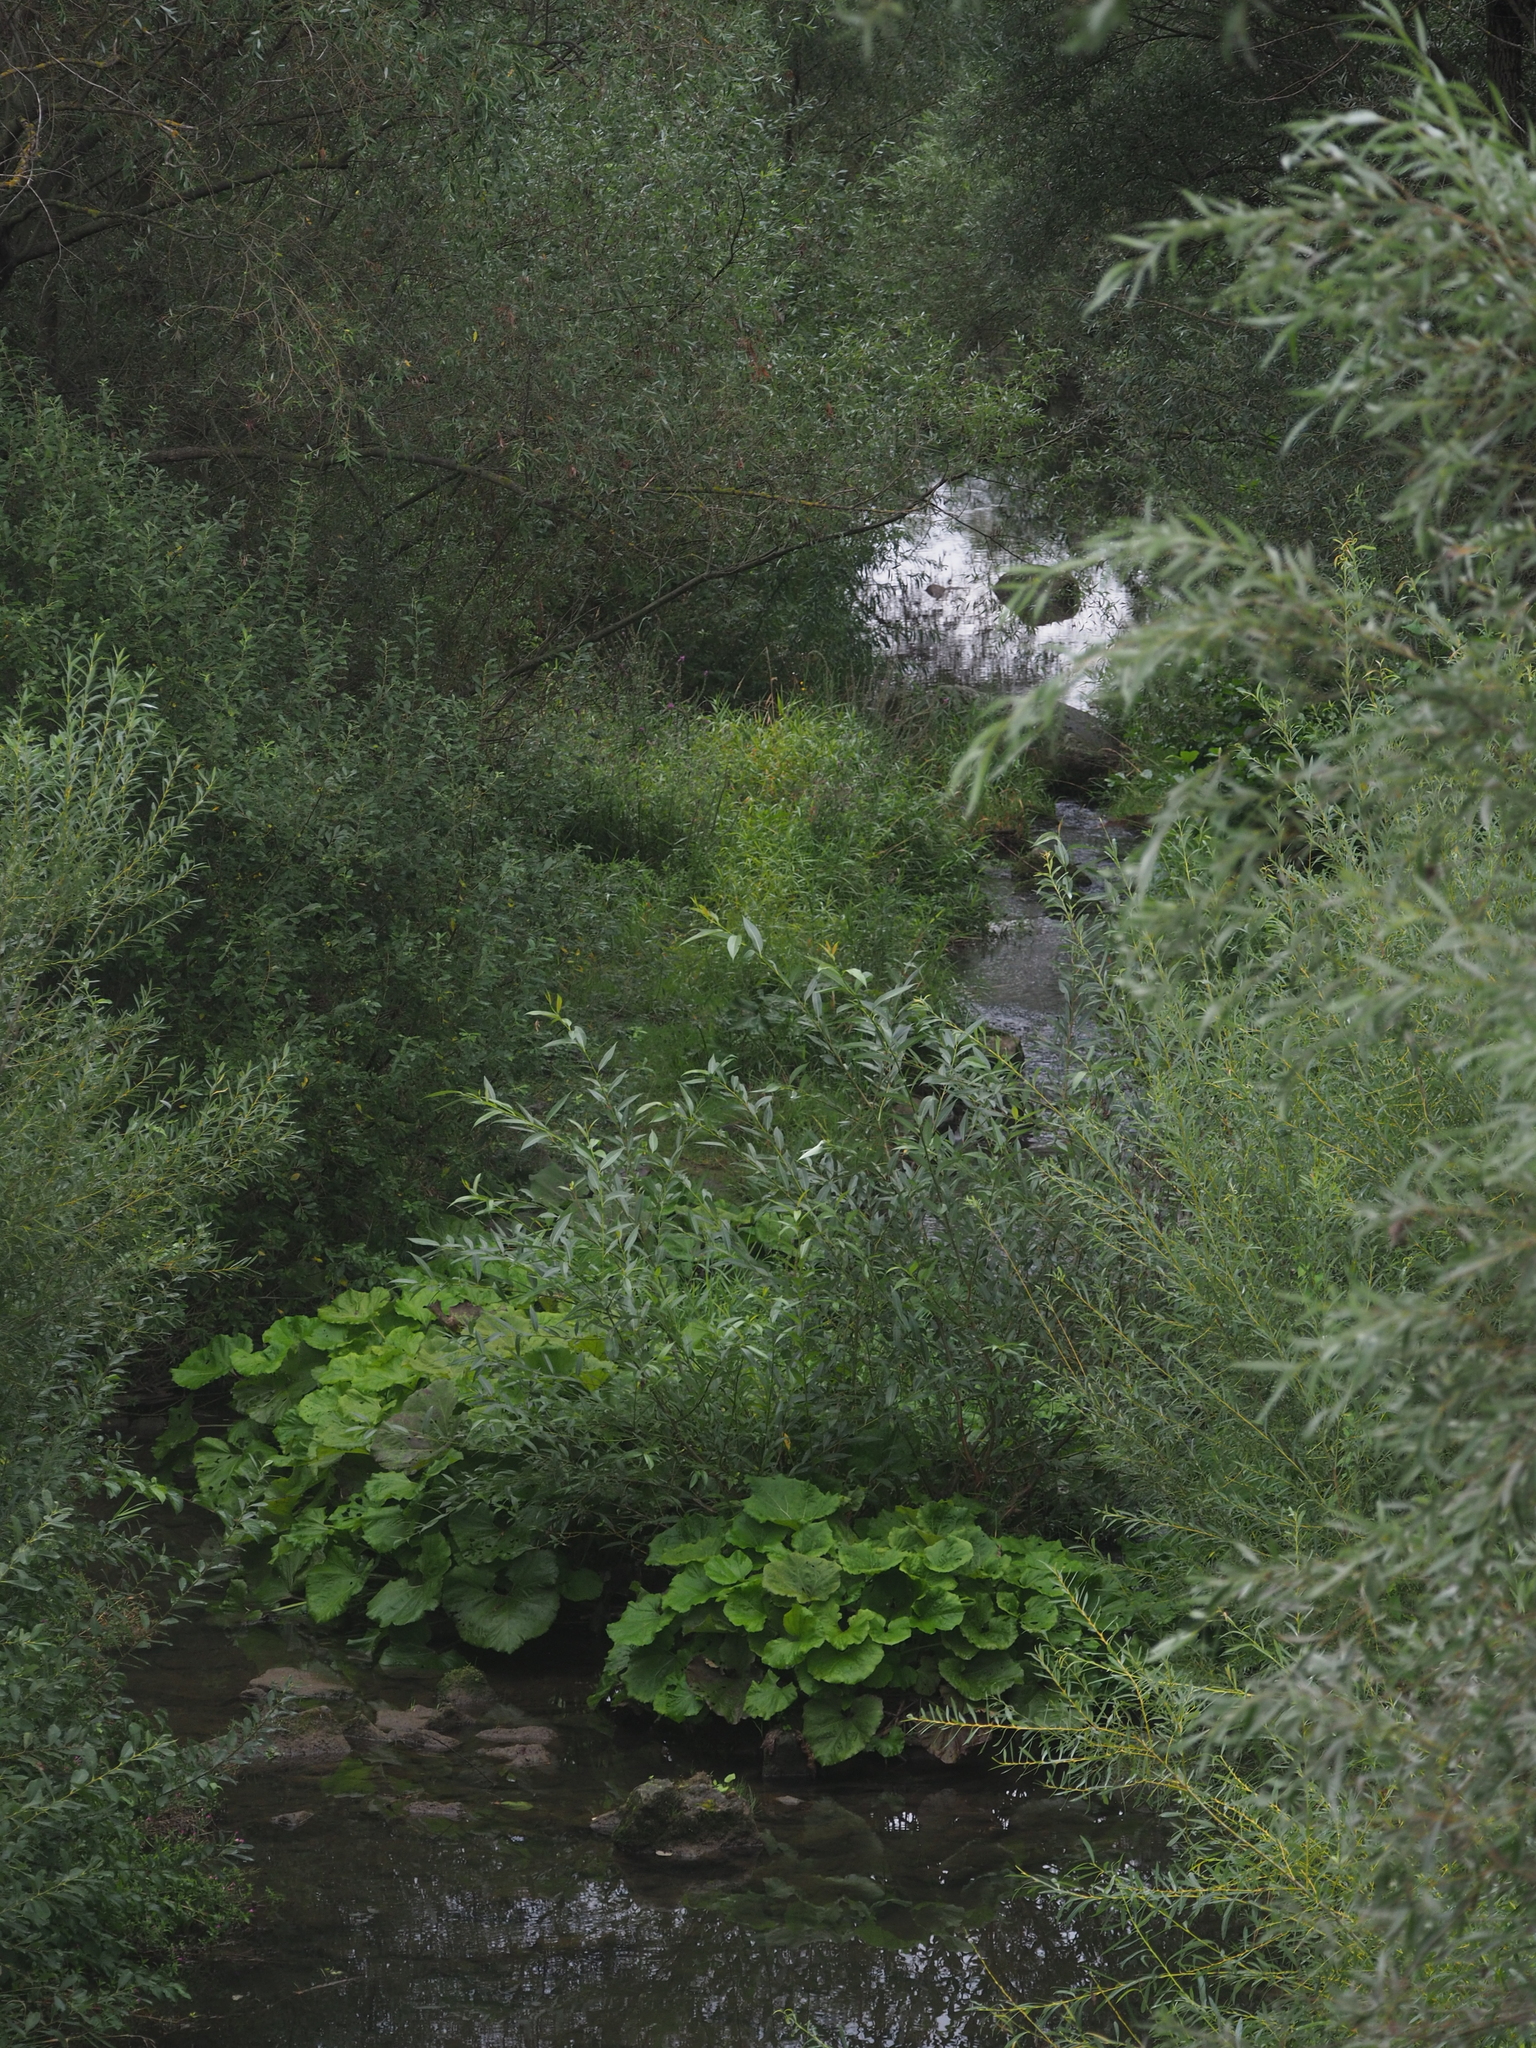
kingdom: Plantae
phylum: Tracheophyta
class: Magnoliopsida
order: Asterales
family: Asteraceae
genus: Petasites
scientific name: Petasites hybridus
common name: Butterbur
